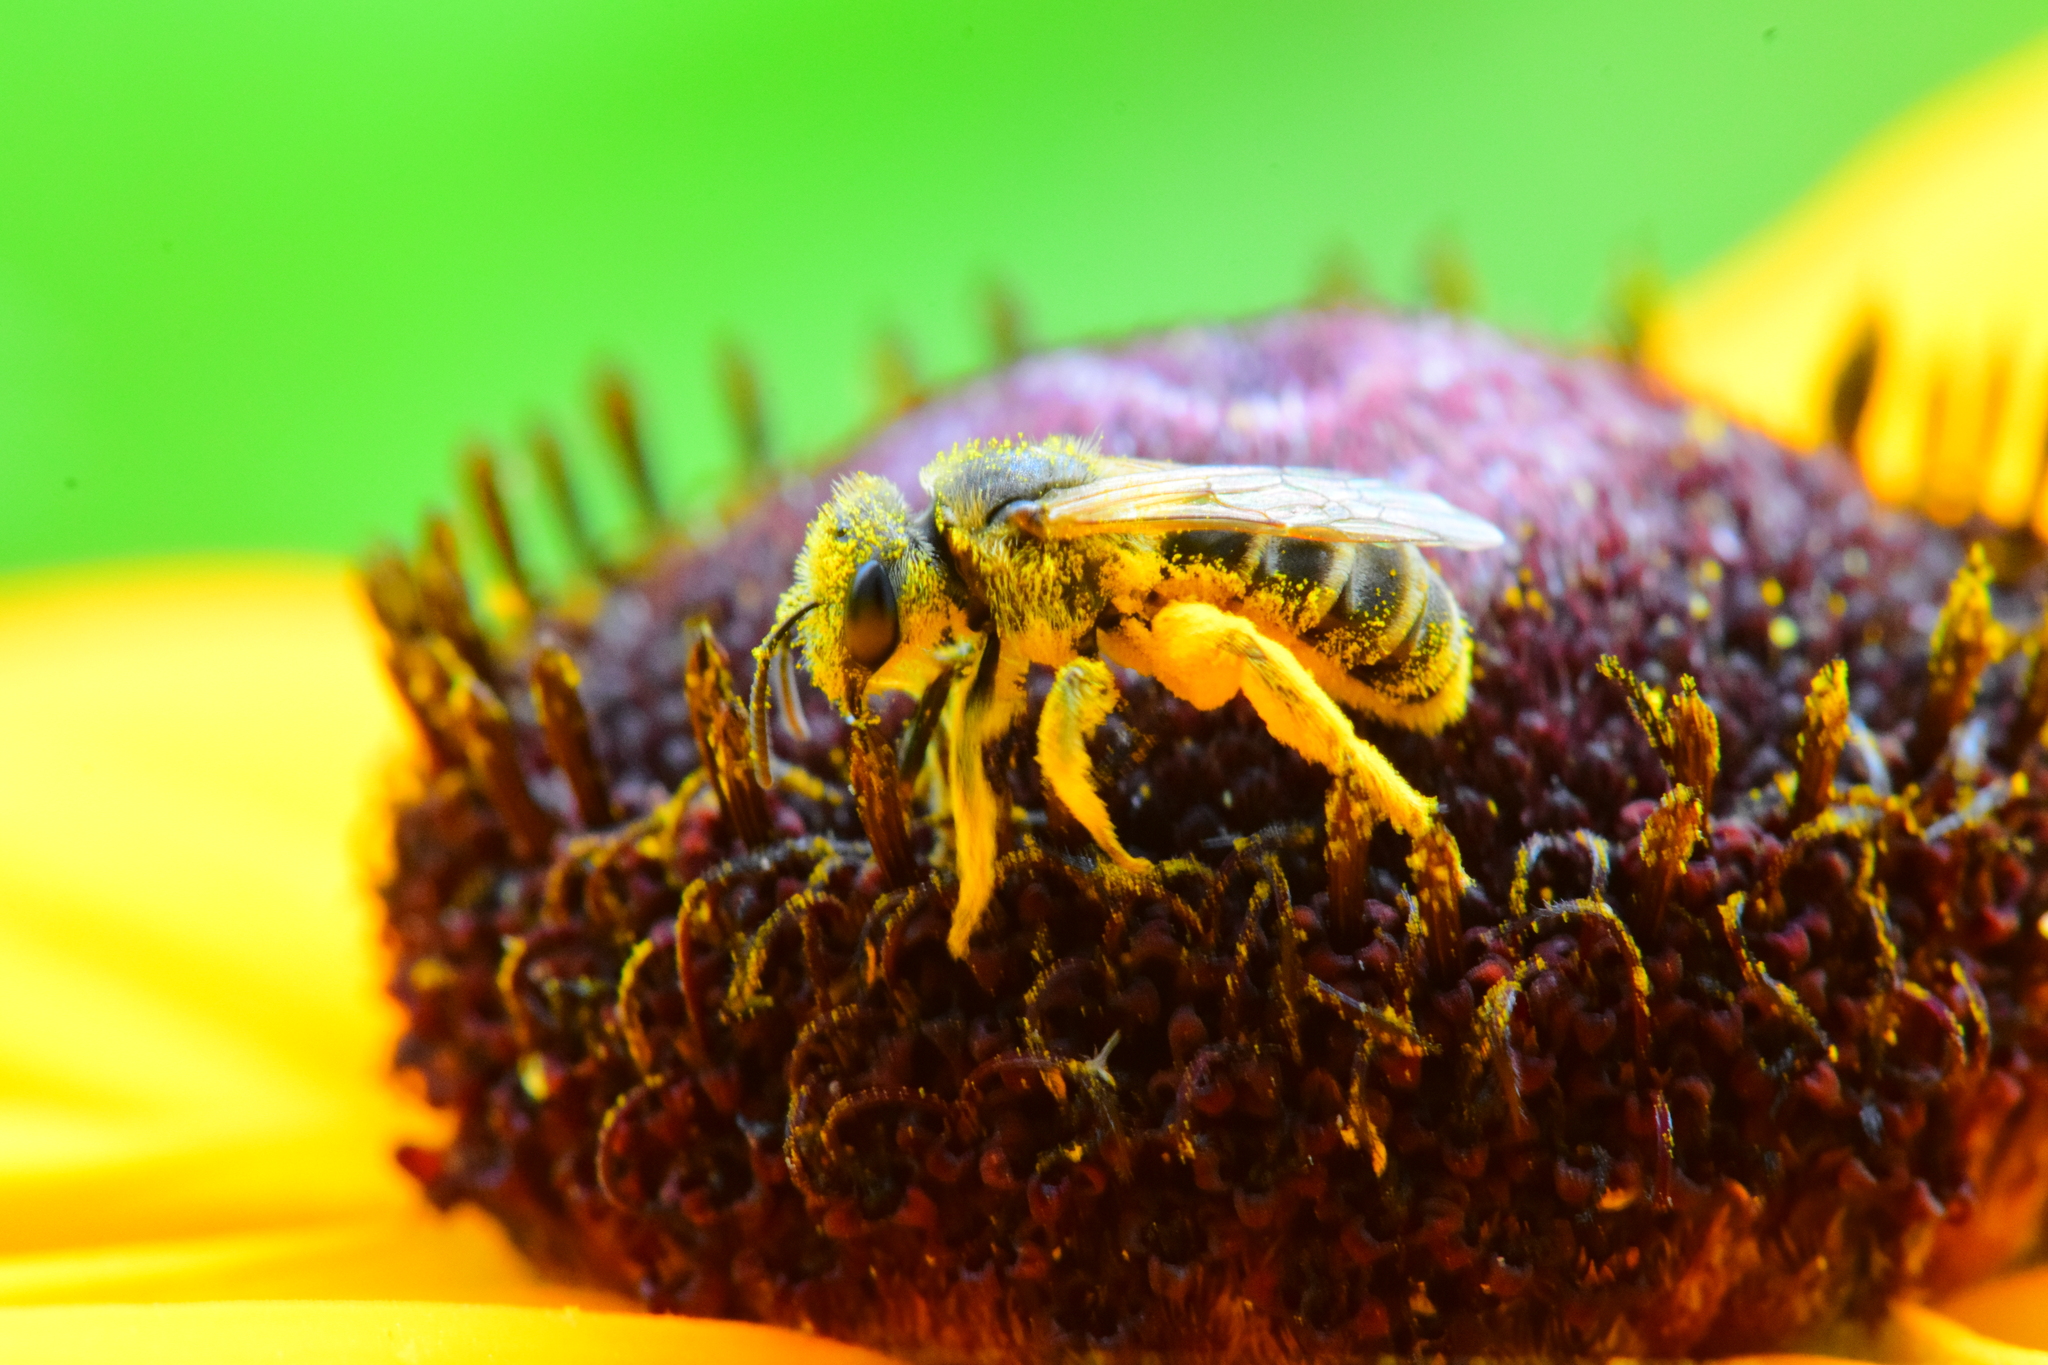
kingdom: Animalia
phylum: Arthropoda
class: Insecta
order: Hymenoptera
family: Halictidae
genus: Halictus
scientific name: Halictus ligatus
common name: Ligated furrow bee
